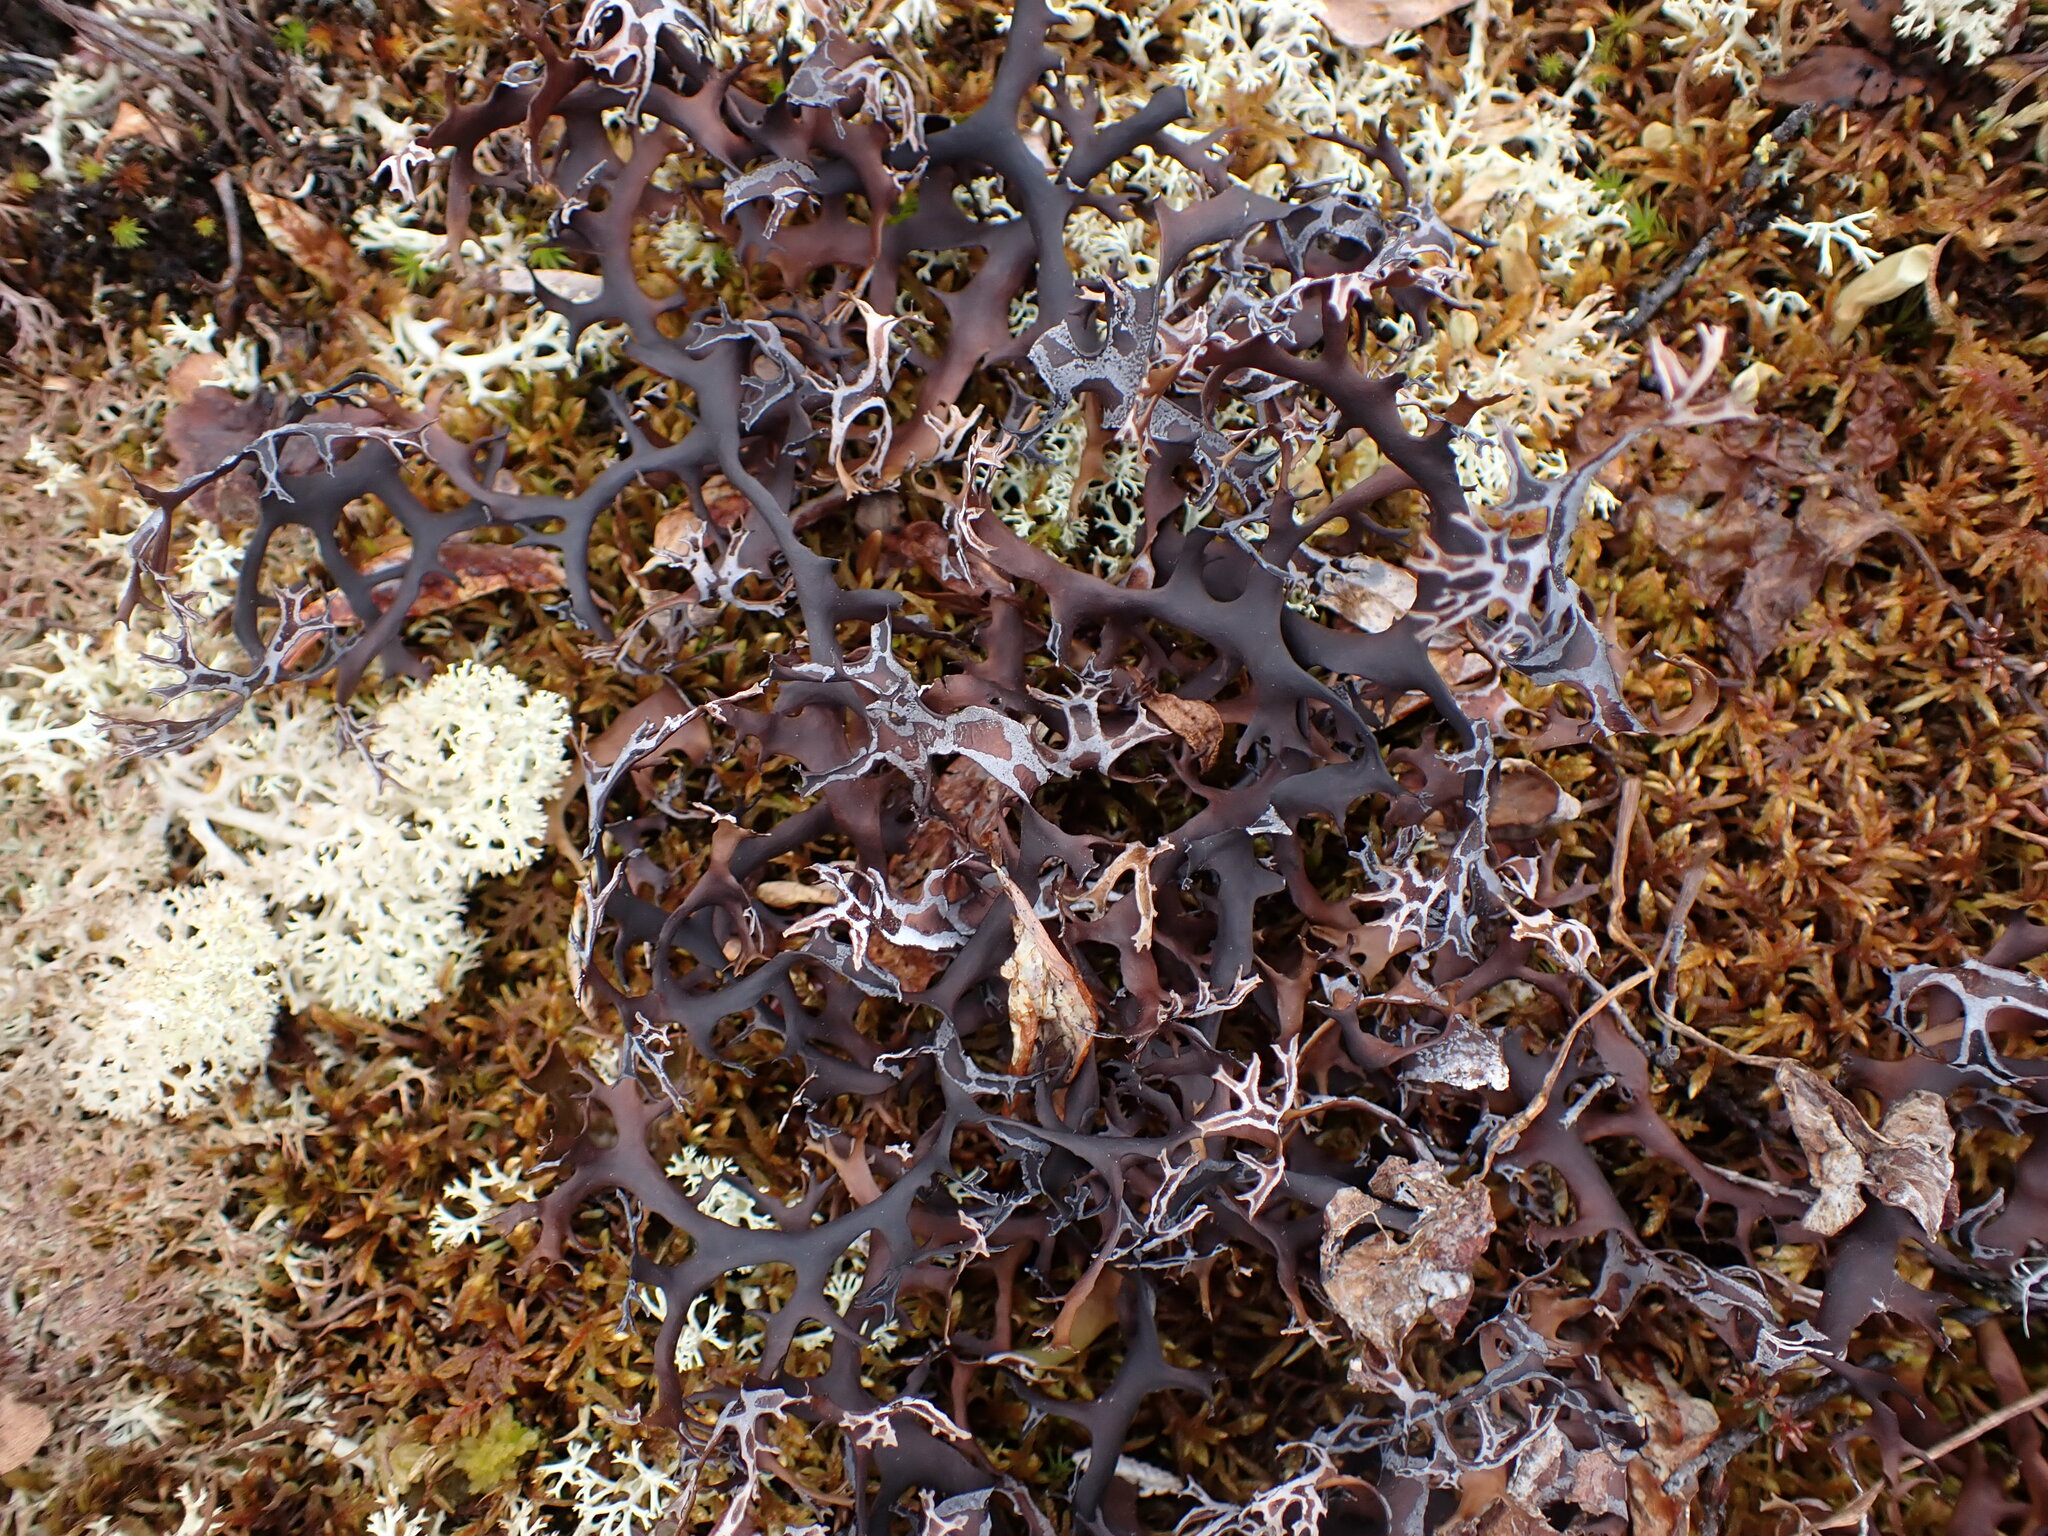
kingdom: Fungi
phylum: Ascomycota
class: Lecanoromycetes
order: Lecanorales
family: Parmeliaceae
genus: Nephromopsis
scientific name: Nephromopsis richardsonii
